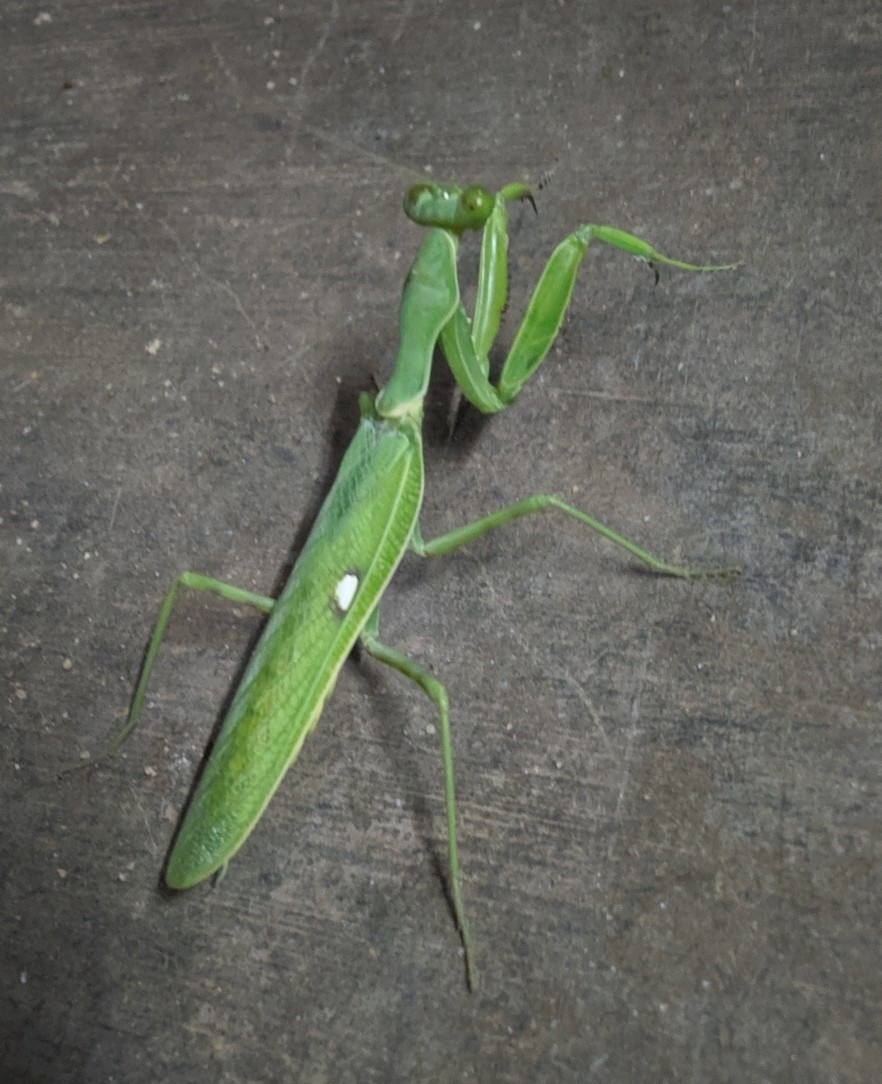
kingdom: Animalia
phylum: Arthropoda
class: Insecta
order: Mantodea
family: Mantidae
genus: Hierodula
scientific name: Hierodula coarctata
